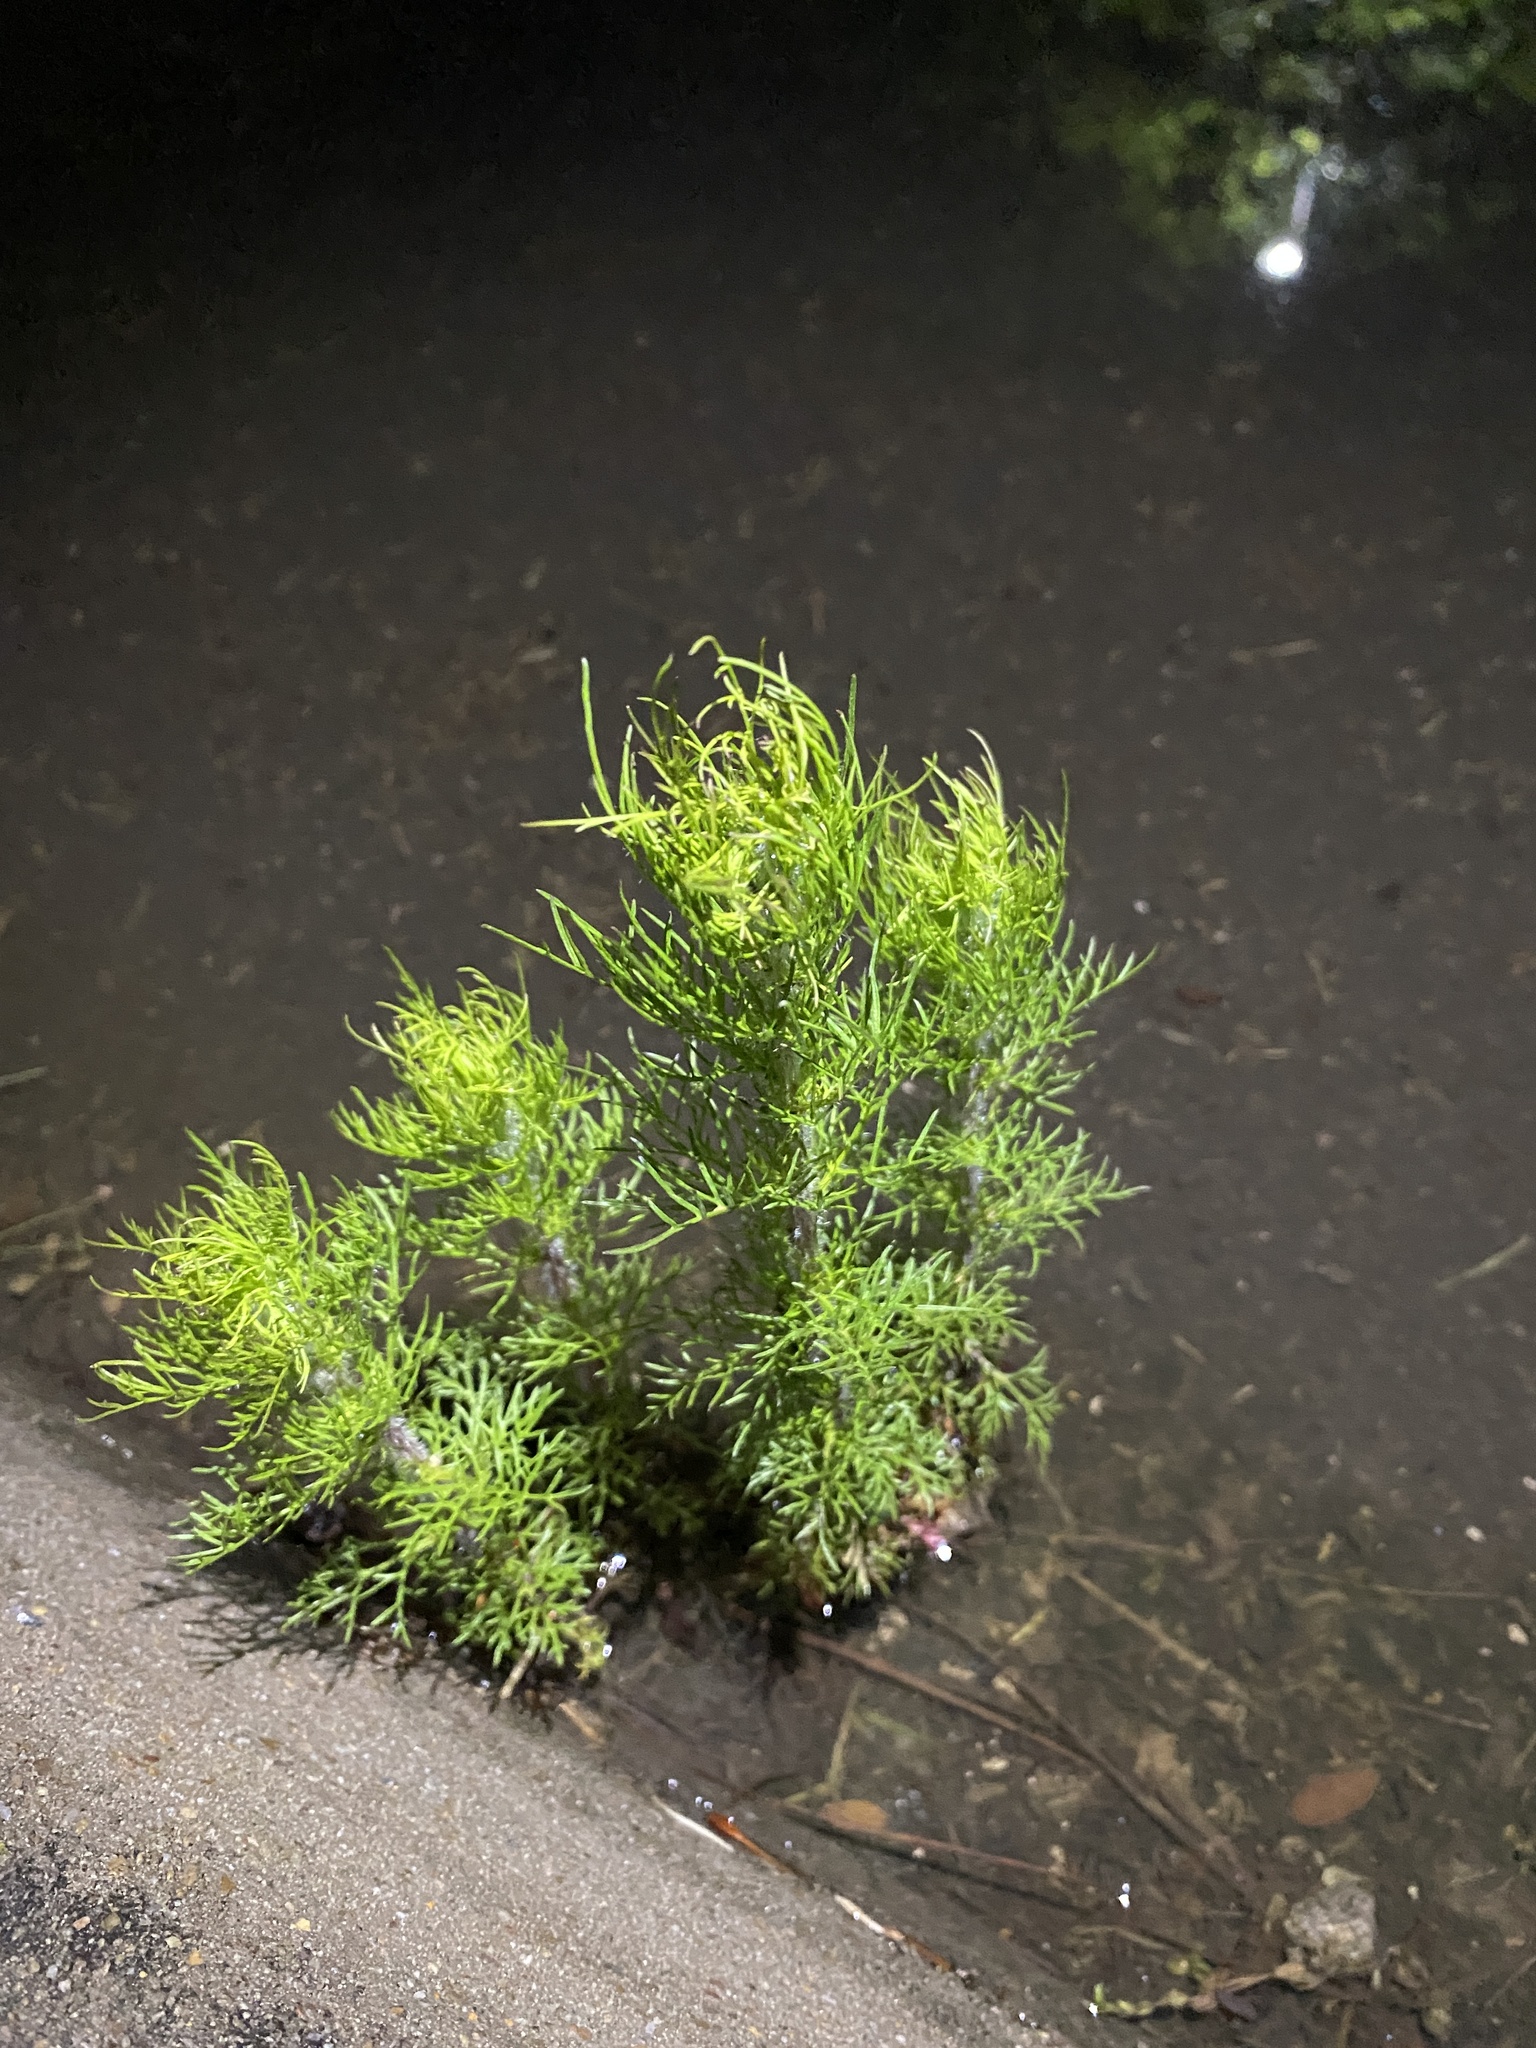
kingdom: Plantae
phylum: Tracheophyta
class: Magnoliopsida
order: Asterales
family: Asteraceae
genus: Eupatorium
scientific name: Eupatorium capillifolium
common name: Dog-fennel
